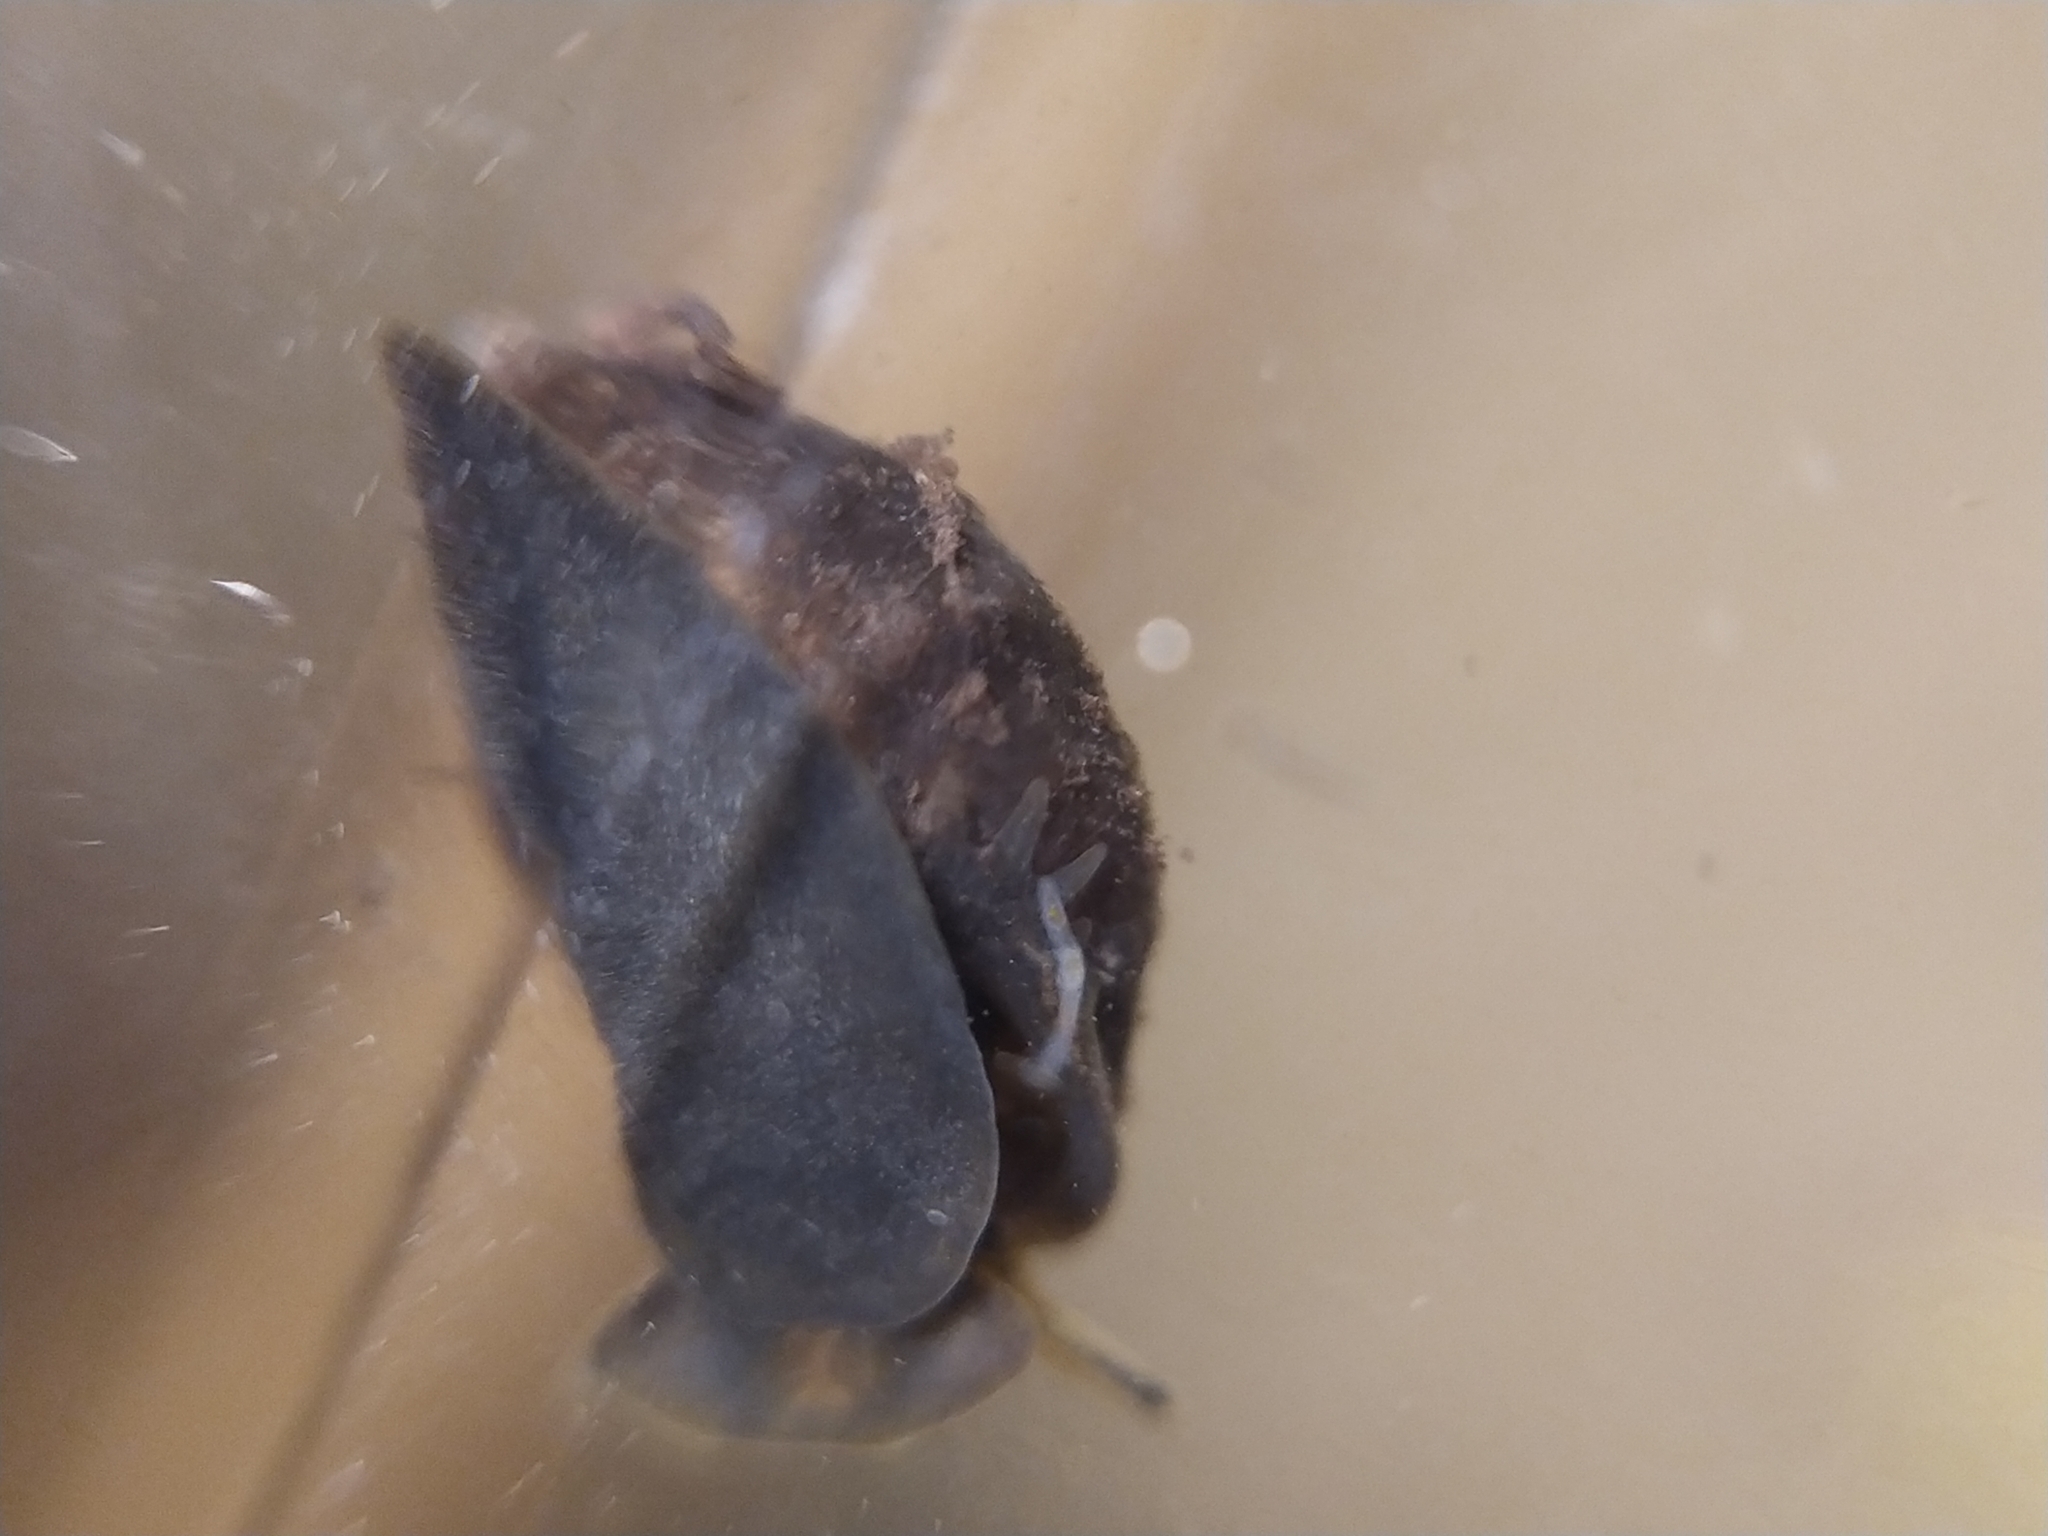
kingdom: Animalia
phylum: Mollusca
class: Gastropoda
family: Physidae
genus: Physella
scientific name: Physella acuta
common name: European physa
